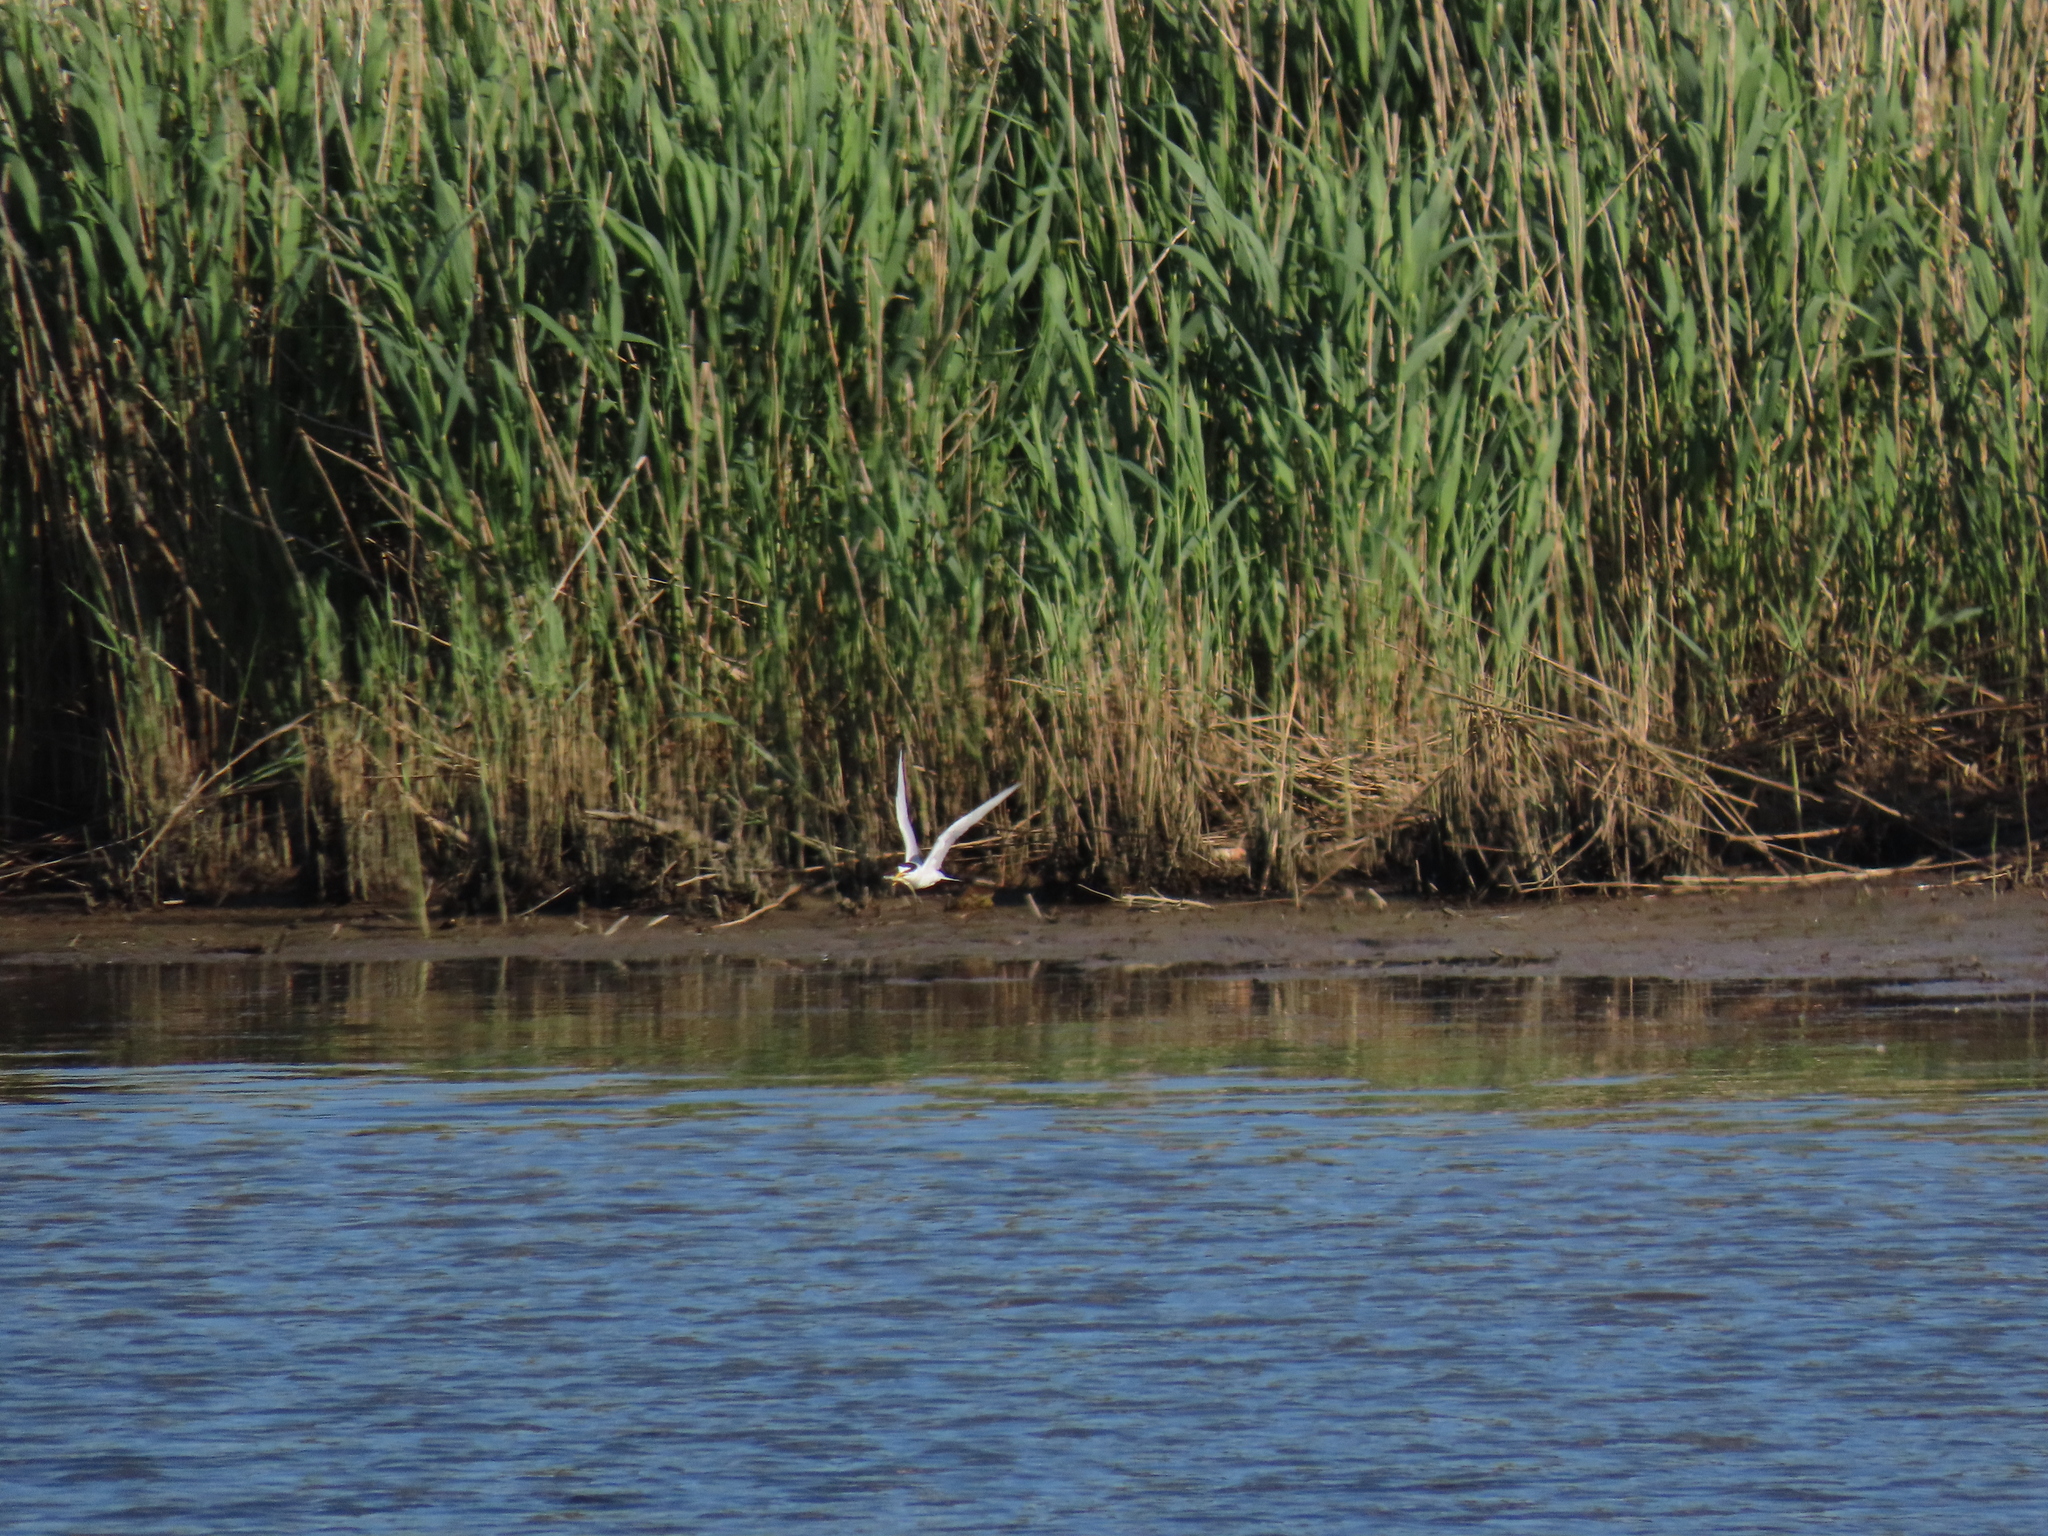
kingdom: Animalia
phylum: Chordata
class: Aves
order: Charadriiformes
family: Laridae
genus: Sternula
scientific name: Sternula antillarum
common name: Least tern
